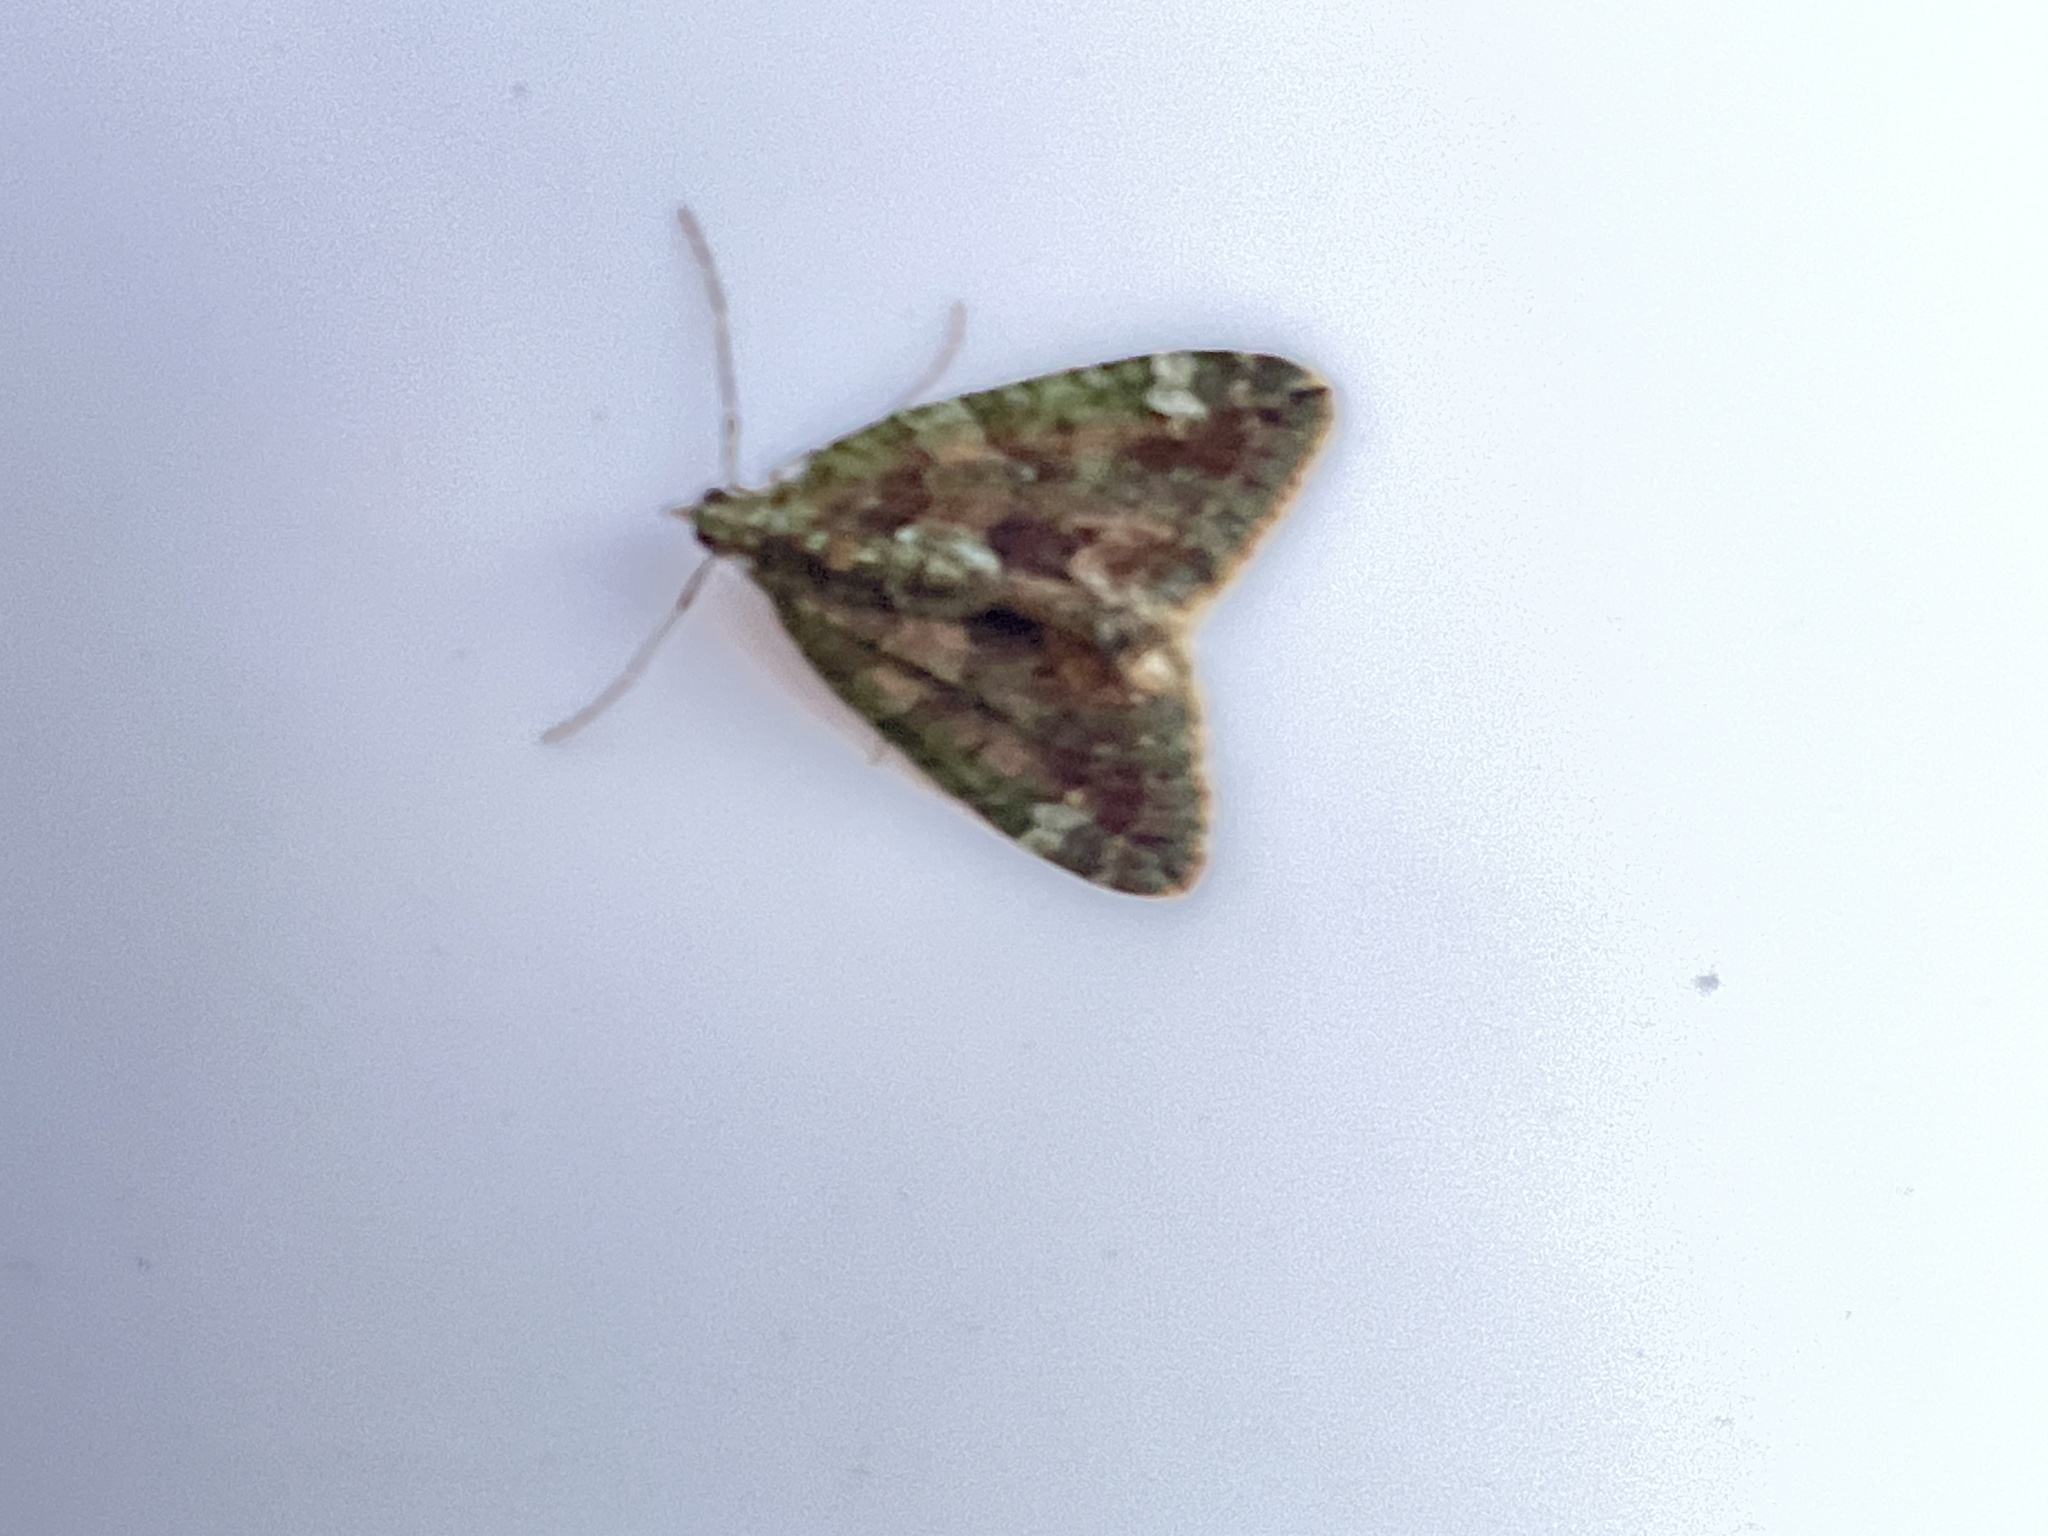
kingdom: Animalia
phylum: Arthropoda
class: Insecta
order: Lepidoptera
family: Geometridae
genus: Chloroclysta
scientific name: Chloroclysta siterata
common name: Red-green carpet
